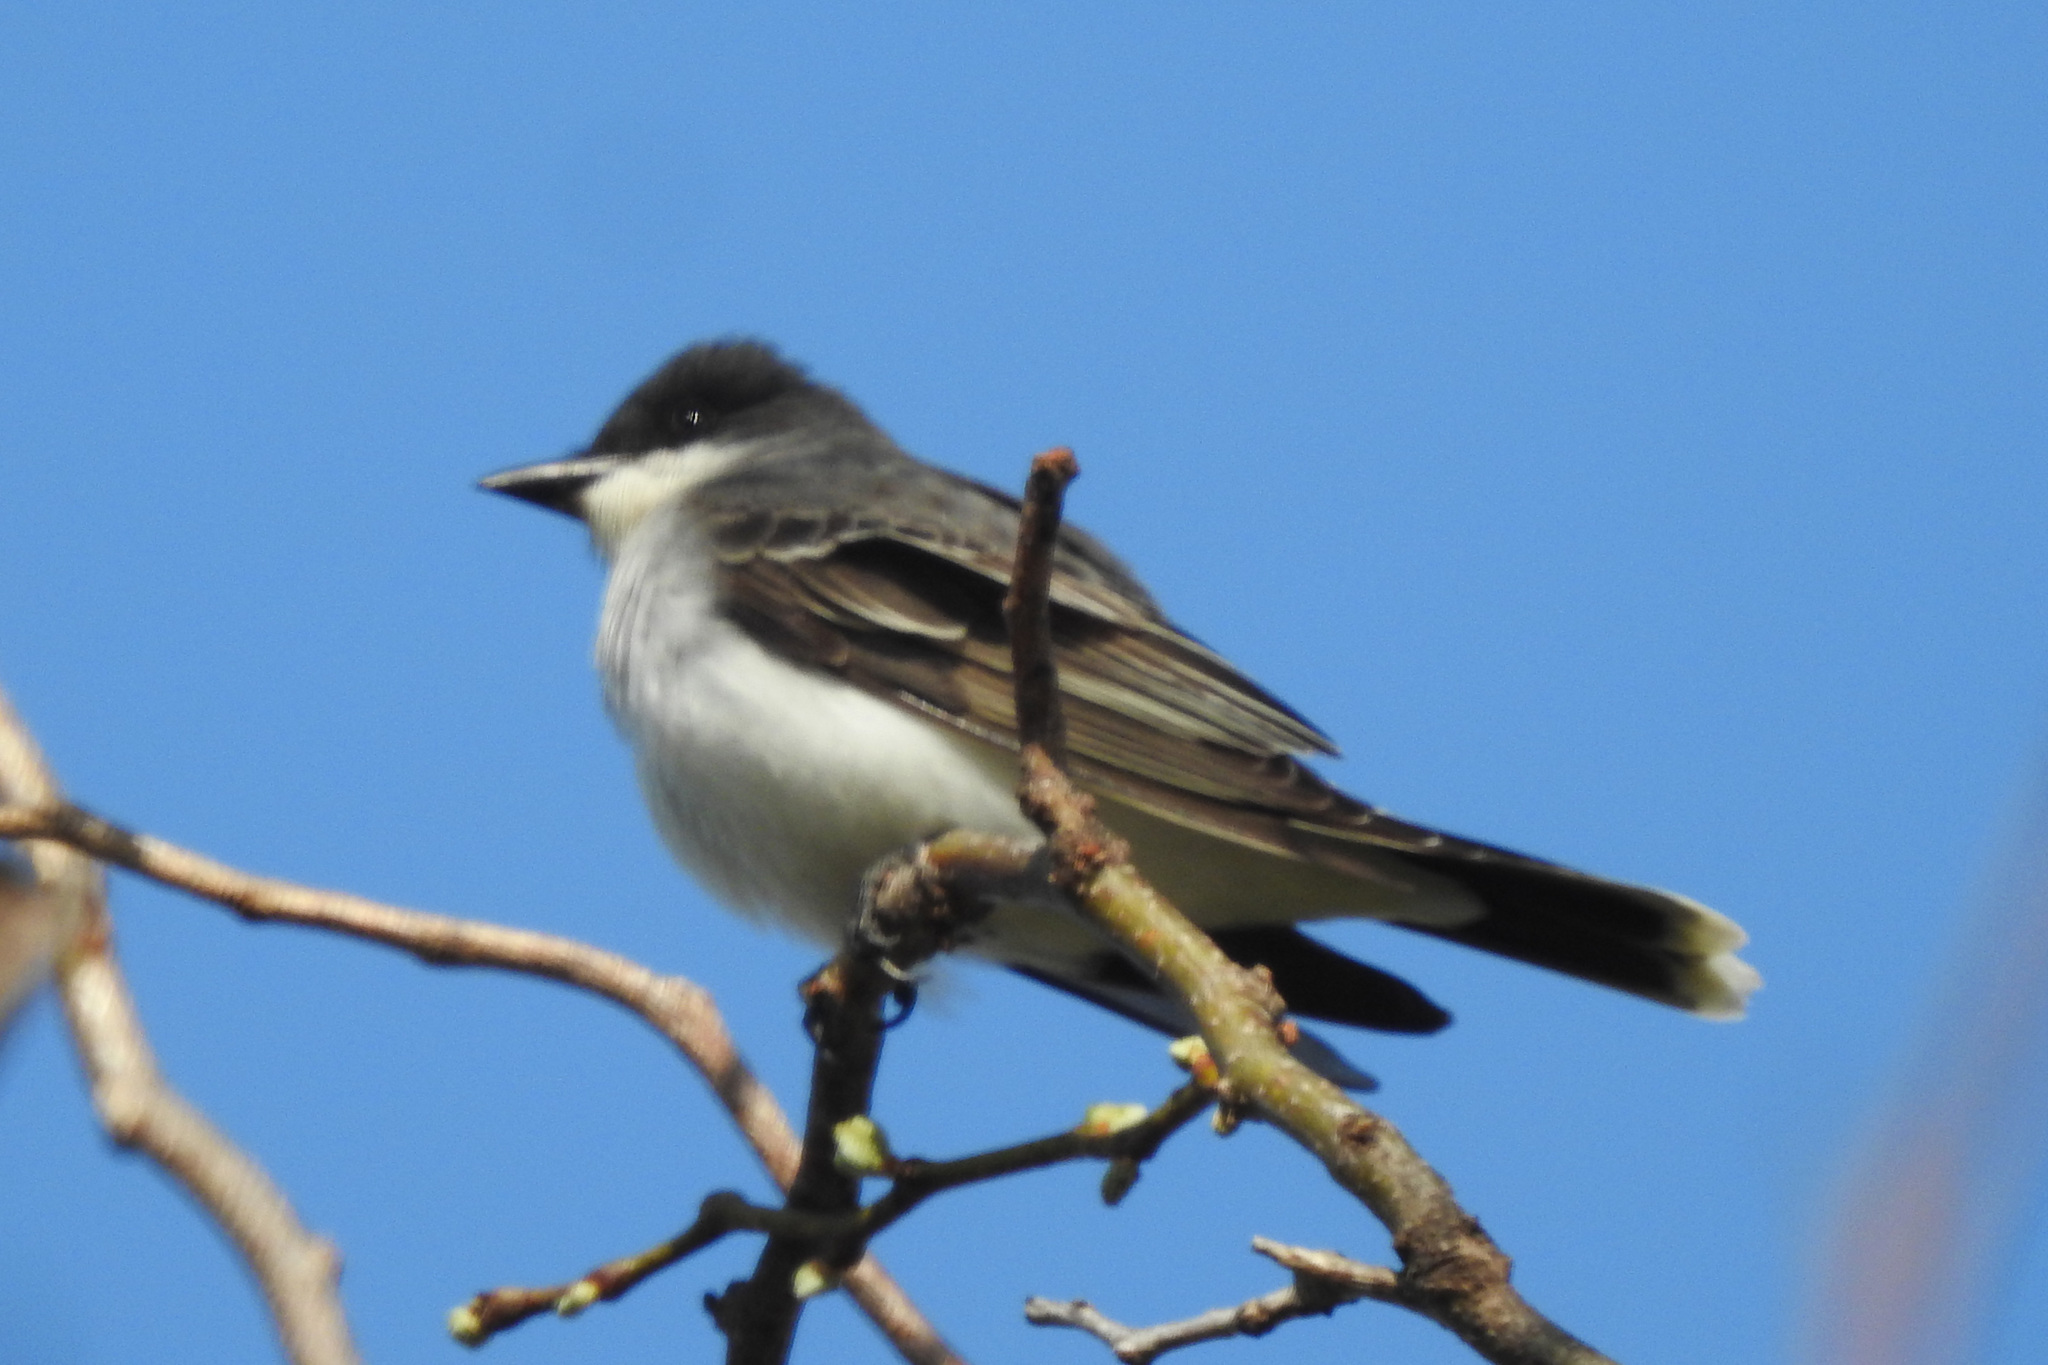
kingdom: Animalia
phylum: Chordata
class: Aves
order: Passeriformes
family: Tyrannidae
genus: Tyrannus
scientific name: Tyrannus tyrannus
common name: Eastern kingbird
